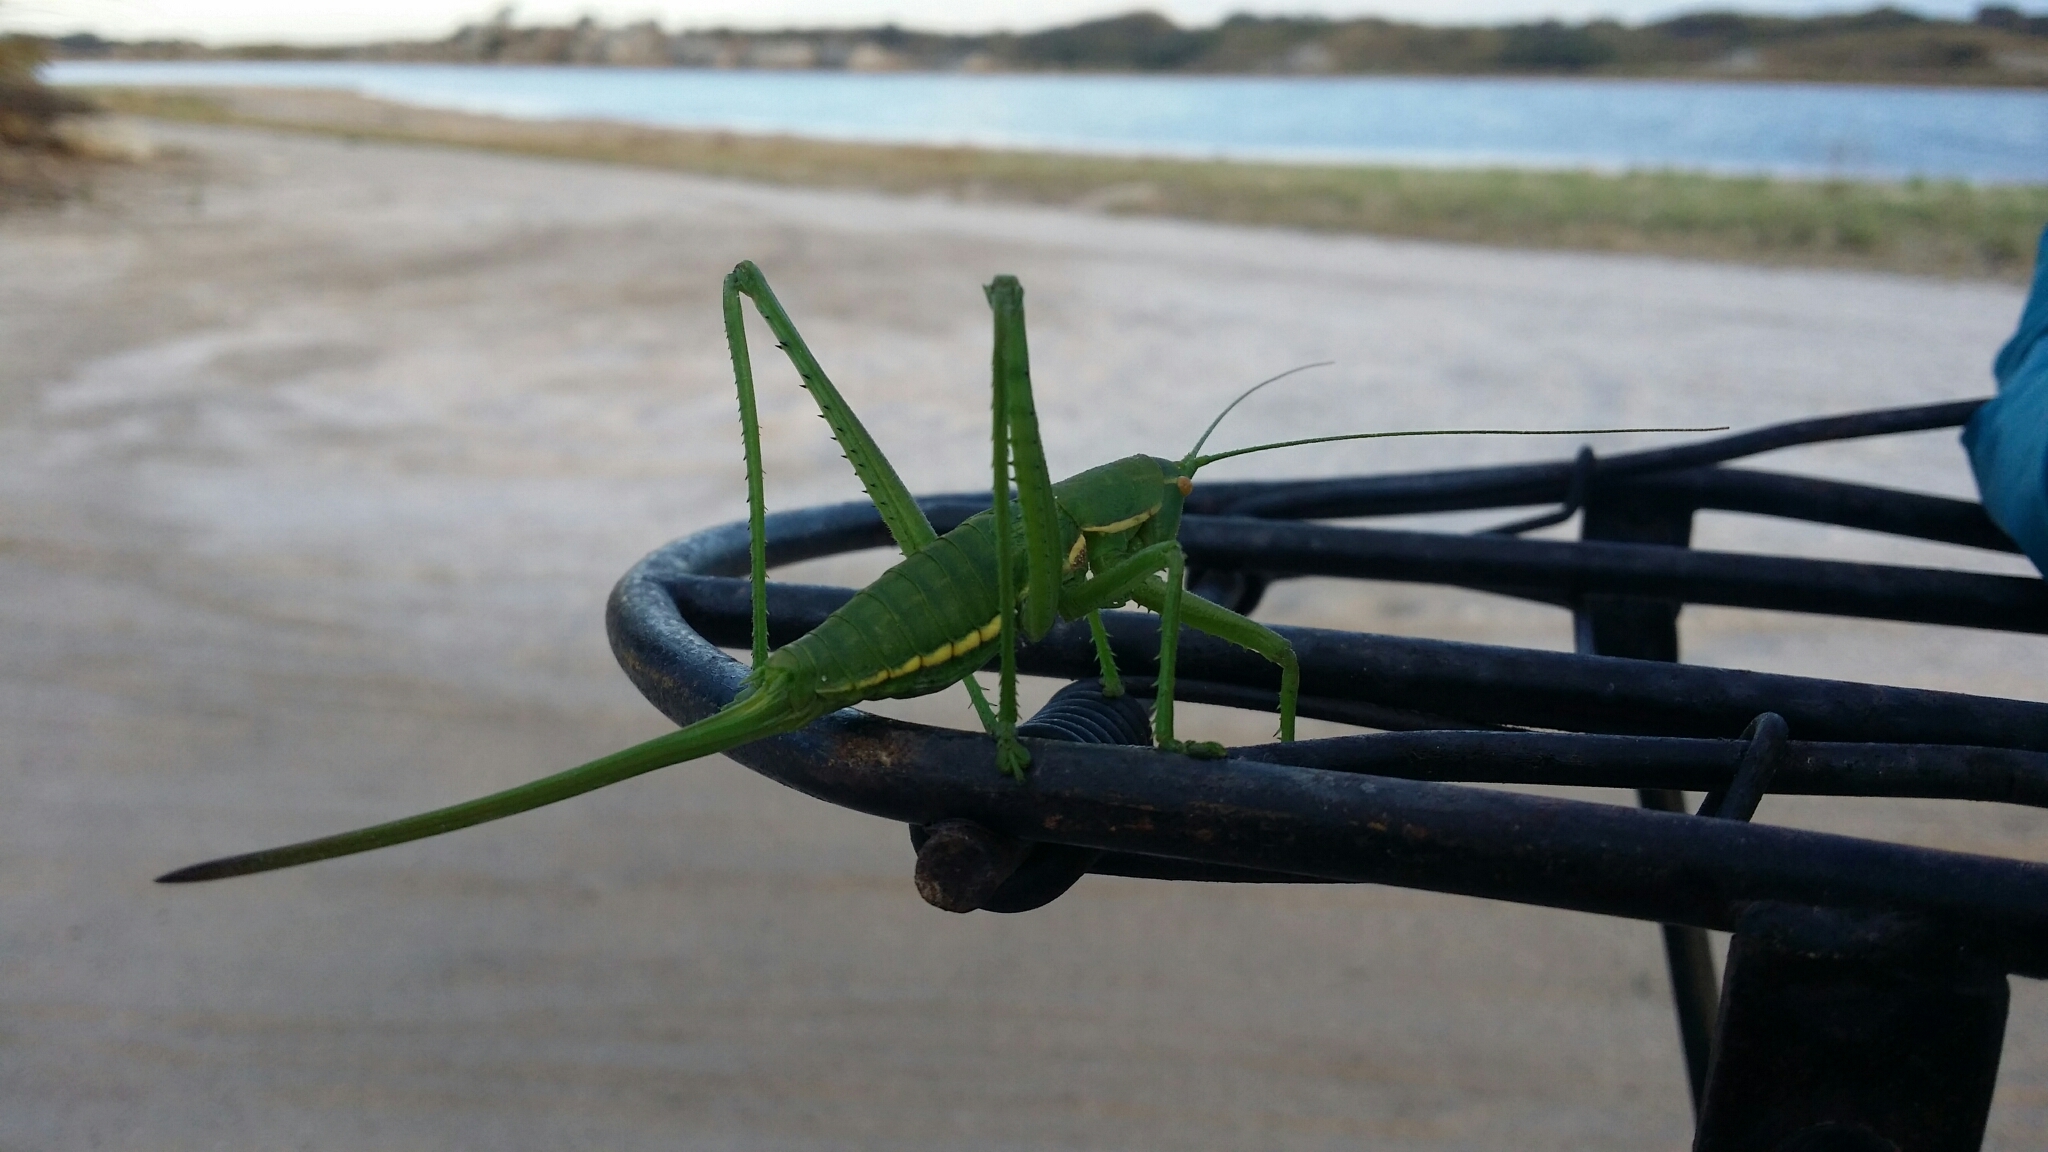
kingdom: Animalia
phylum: Arthropoda
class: Insecta
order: Orthoptera
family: Tettigoniidae
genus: Hemisaga
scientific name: Hemisaga denticulata
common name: Common sluggish katydid
